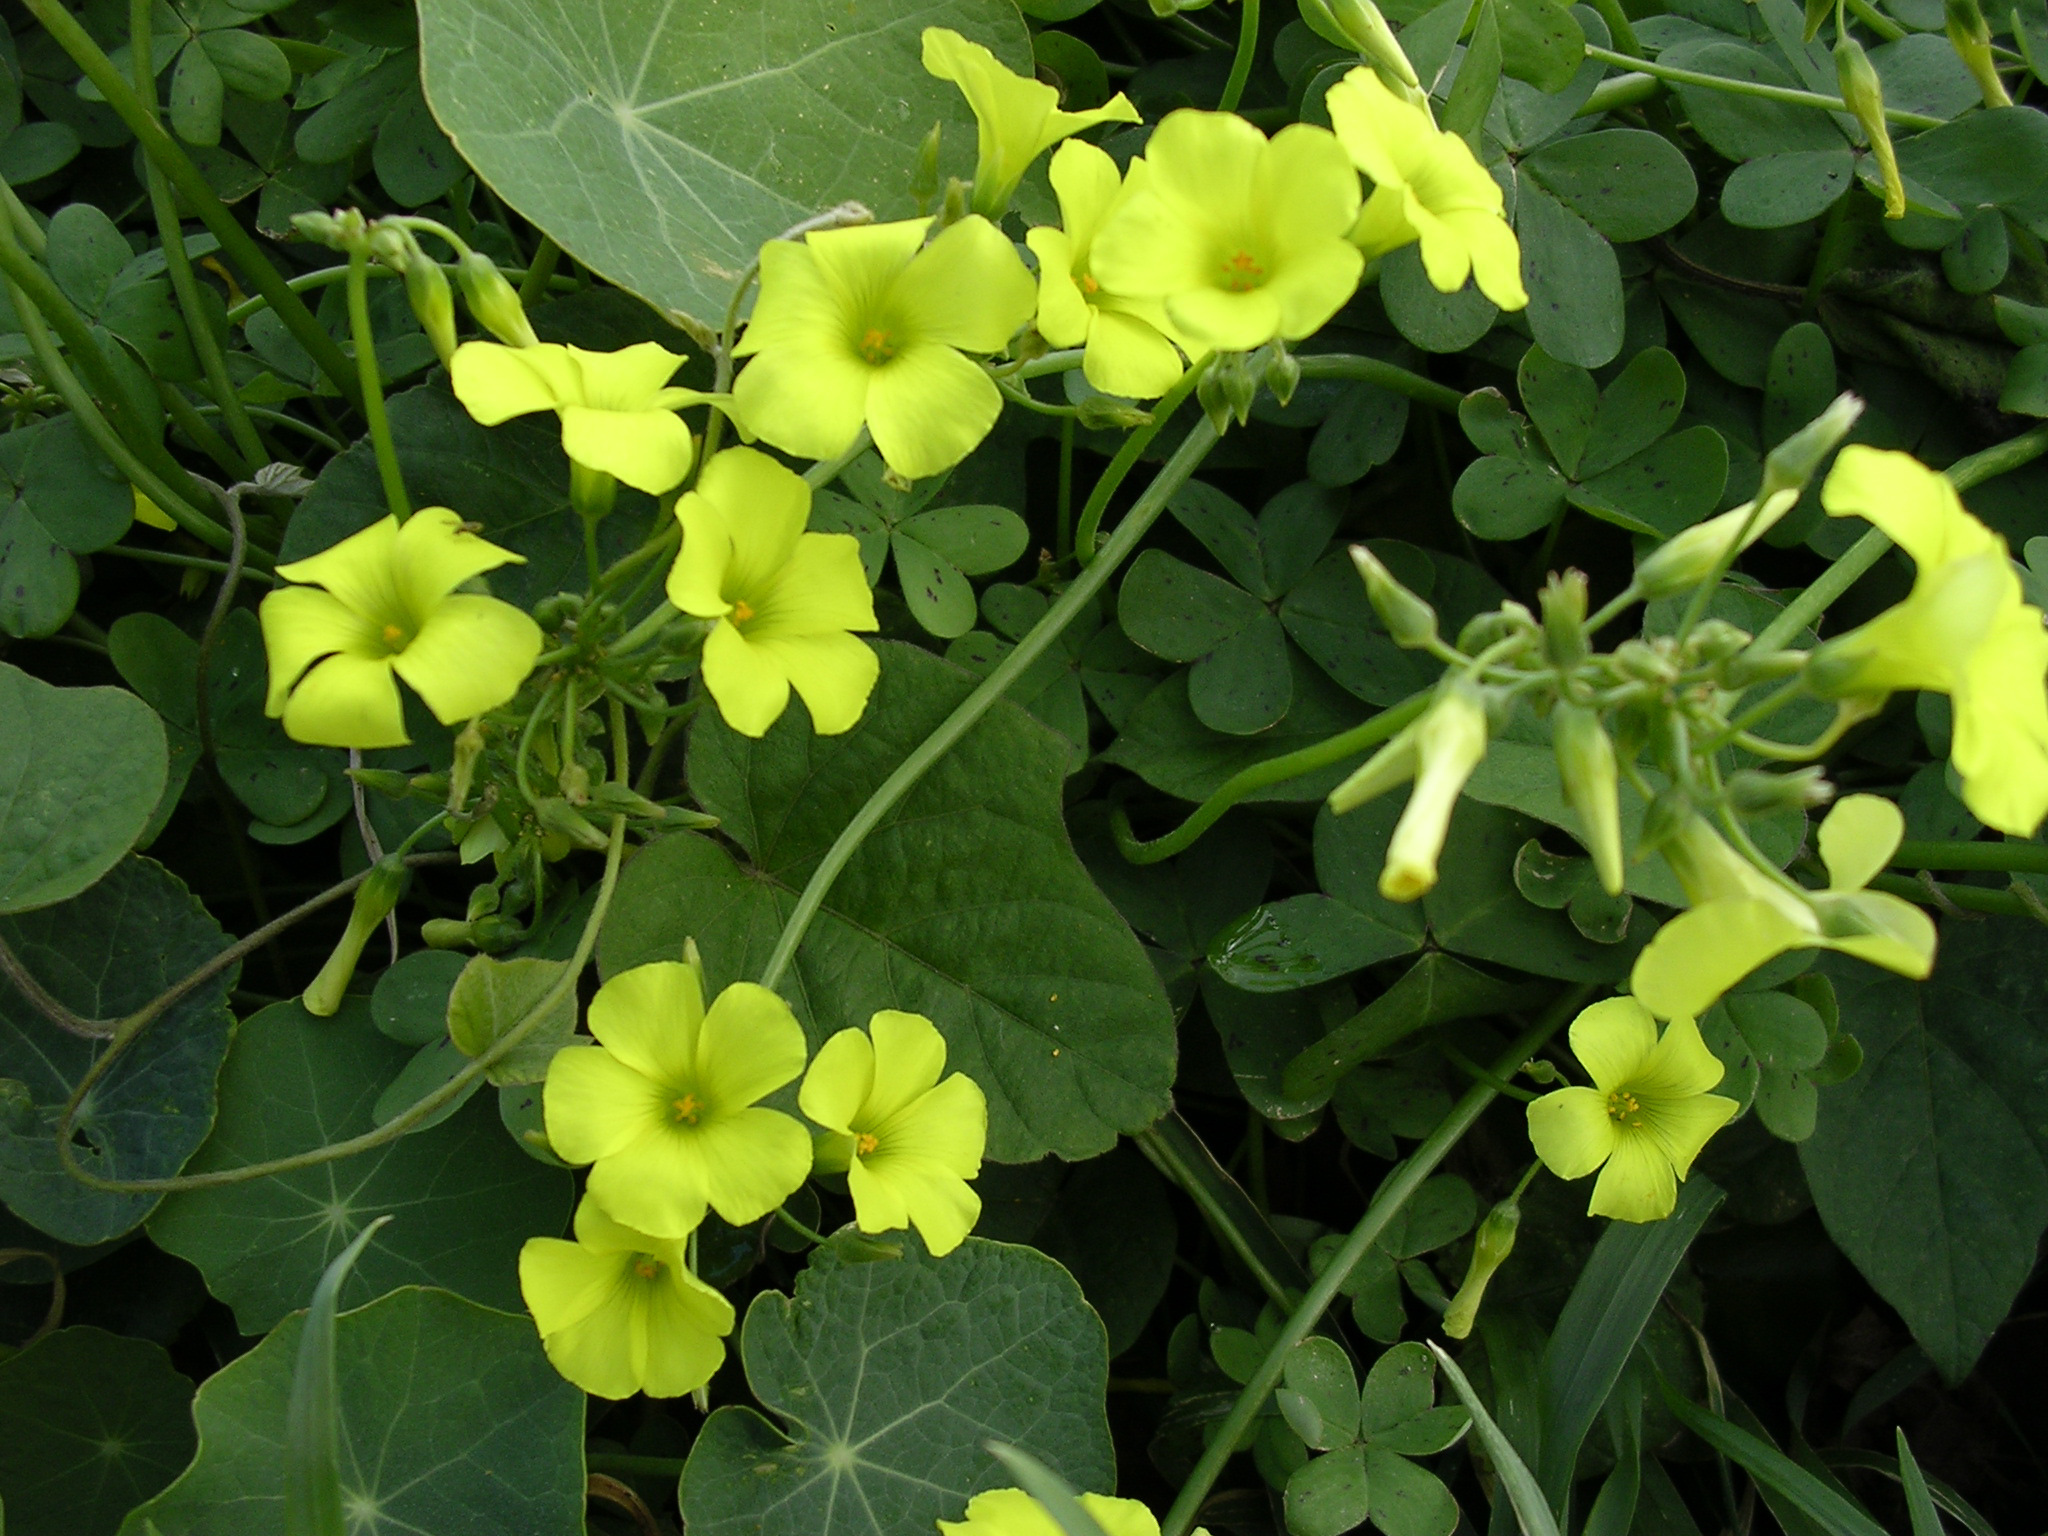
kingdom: Plantae
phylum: Tracheophyta
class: Magnoliopsida
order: Oxalidales
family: Oxalidaceae
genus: Oxalis
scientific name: Oxalis pes-caprae
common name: Bermuda-buttercup
